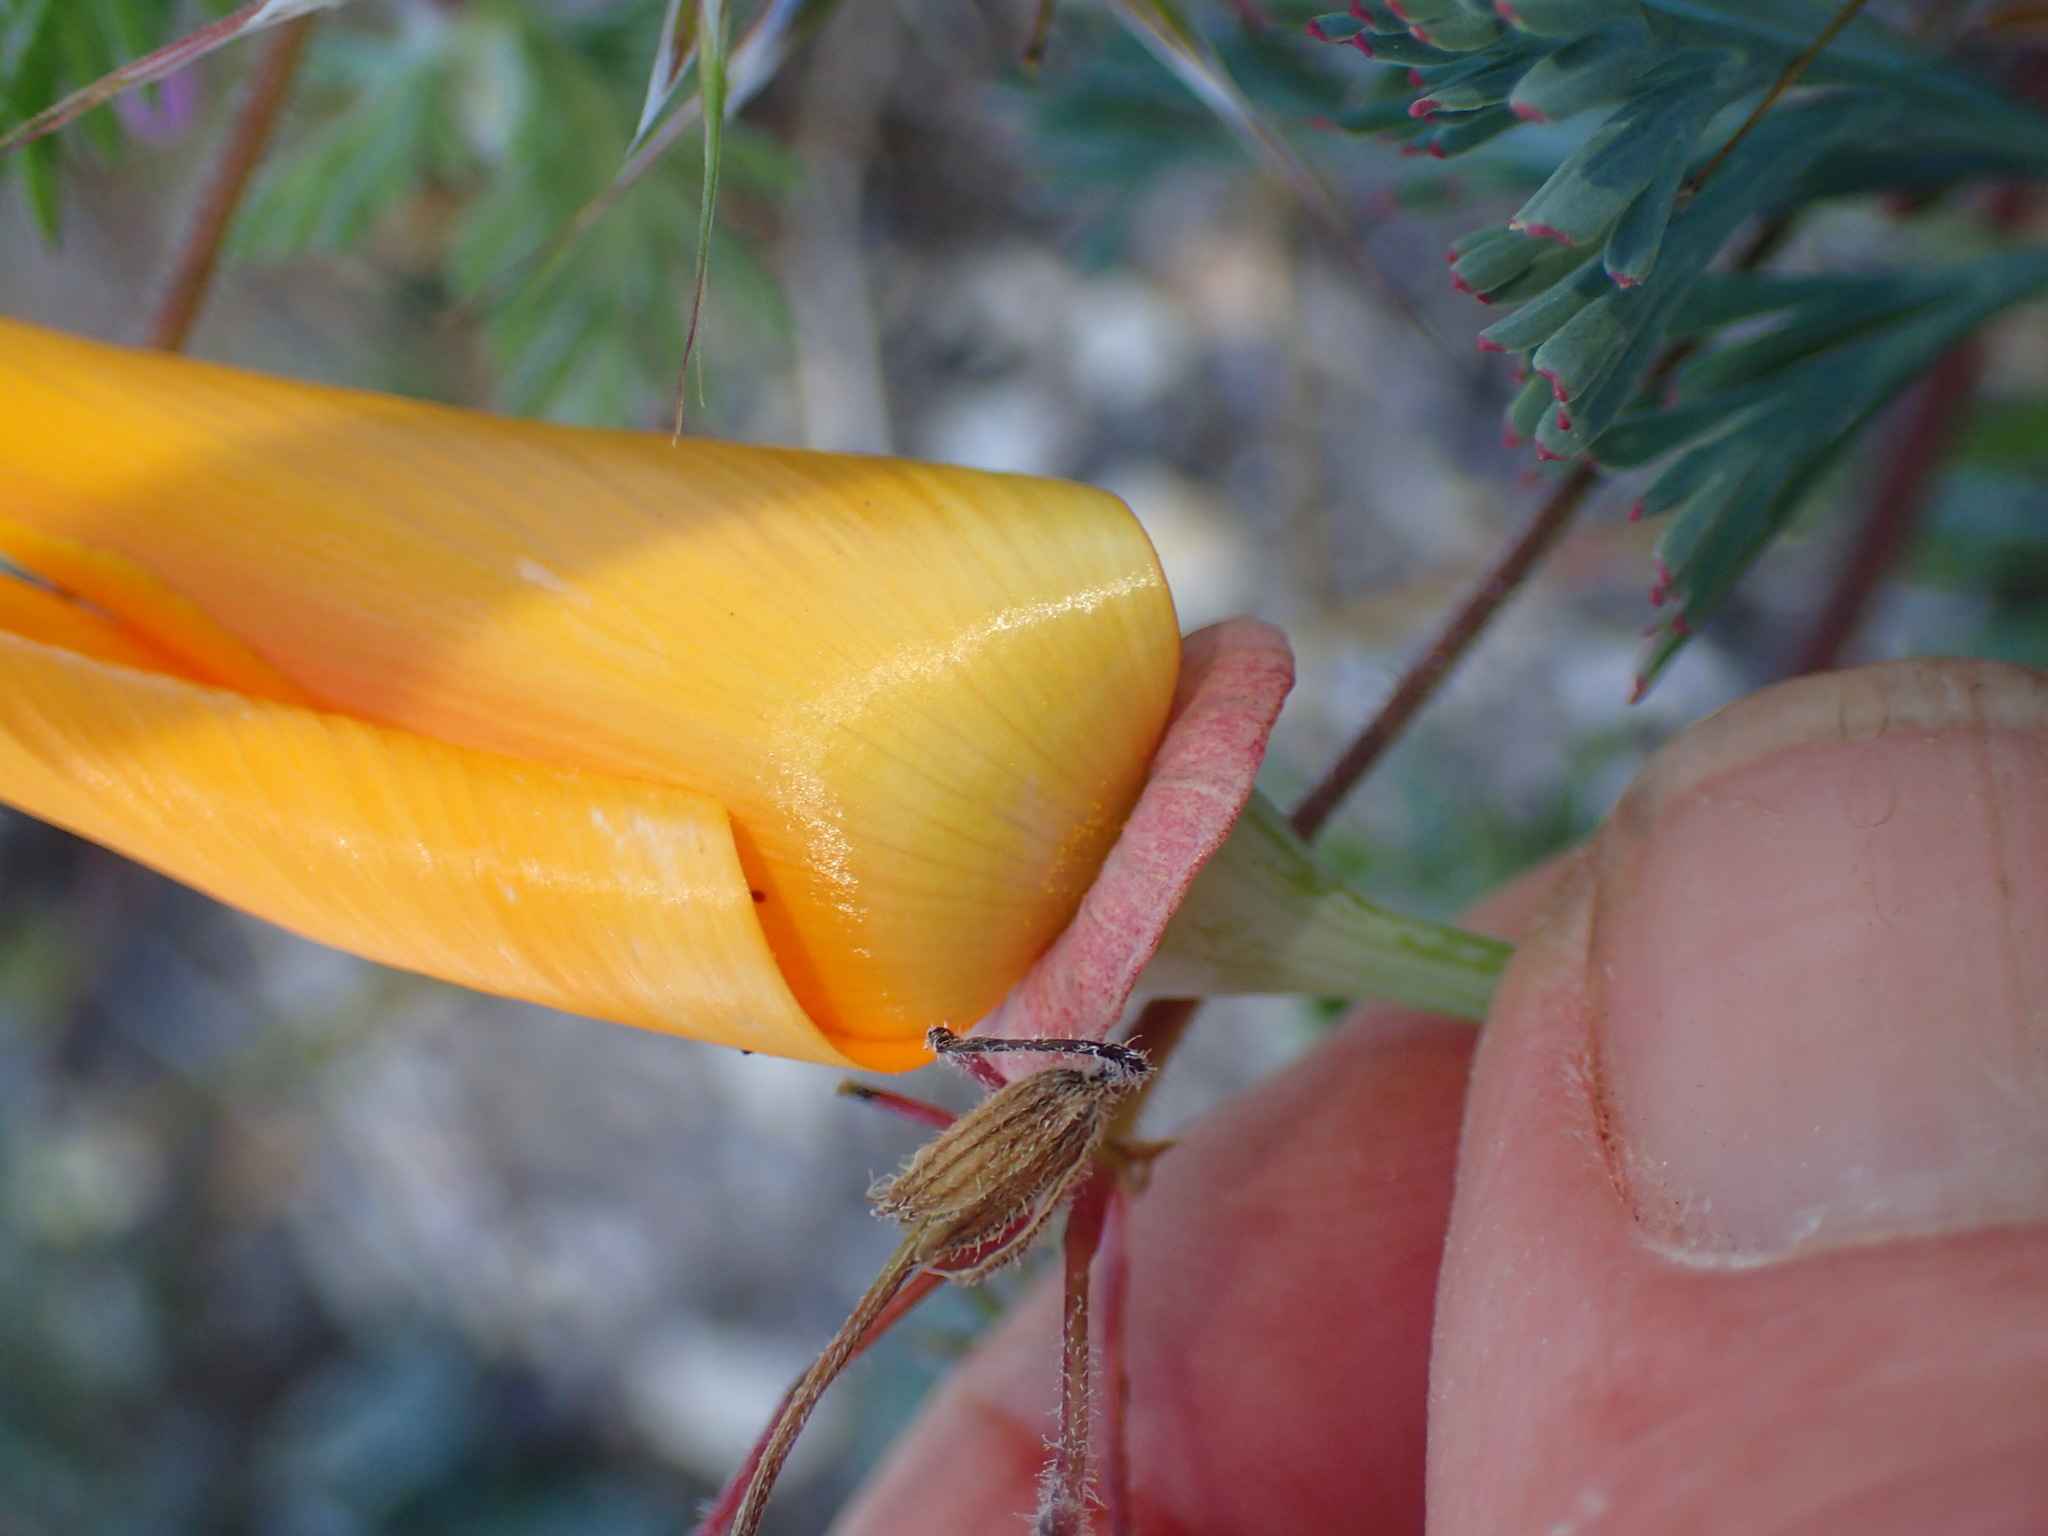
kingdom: Plantae
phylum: Tracheophyta
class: Magnoliopsida
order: Ranunculales
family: Papaveraceae
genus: Eschscholzia
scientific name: Eschscholzia californica
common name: California poppy
